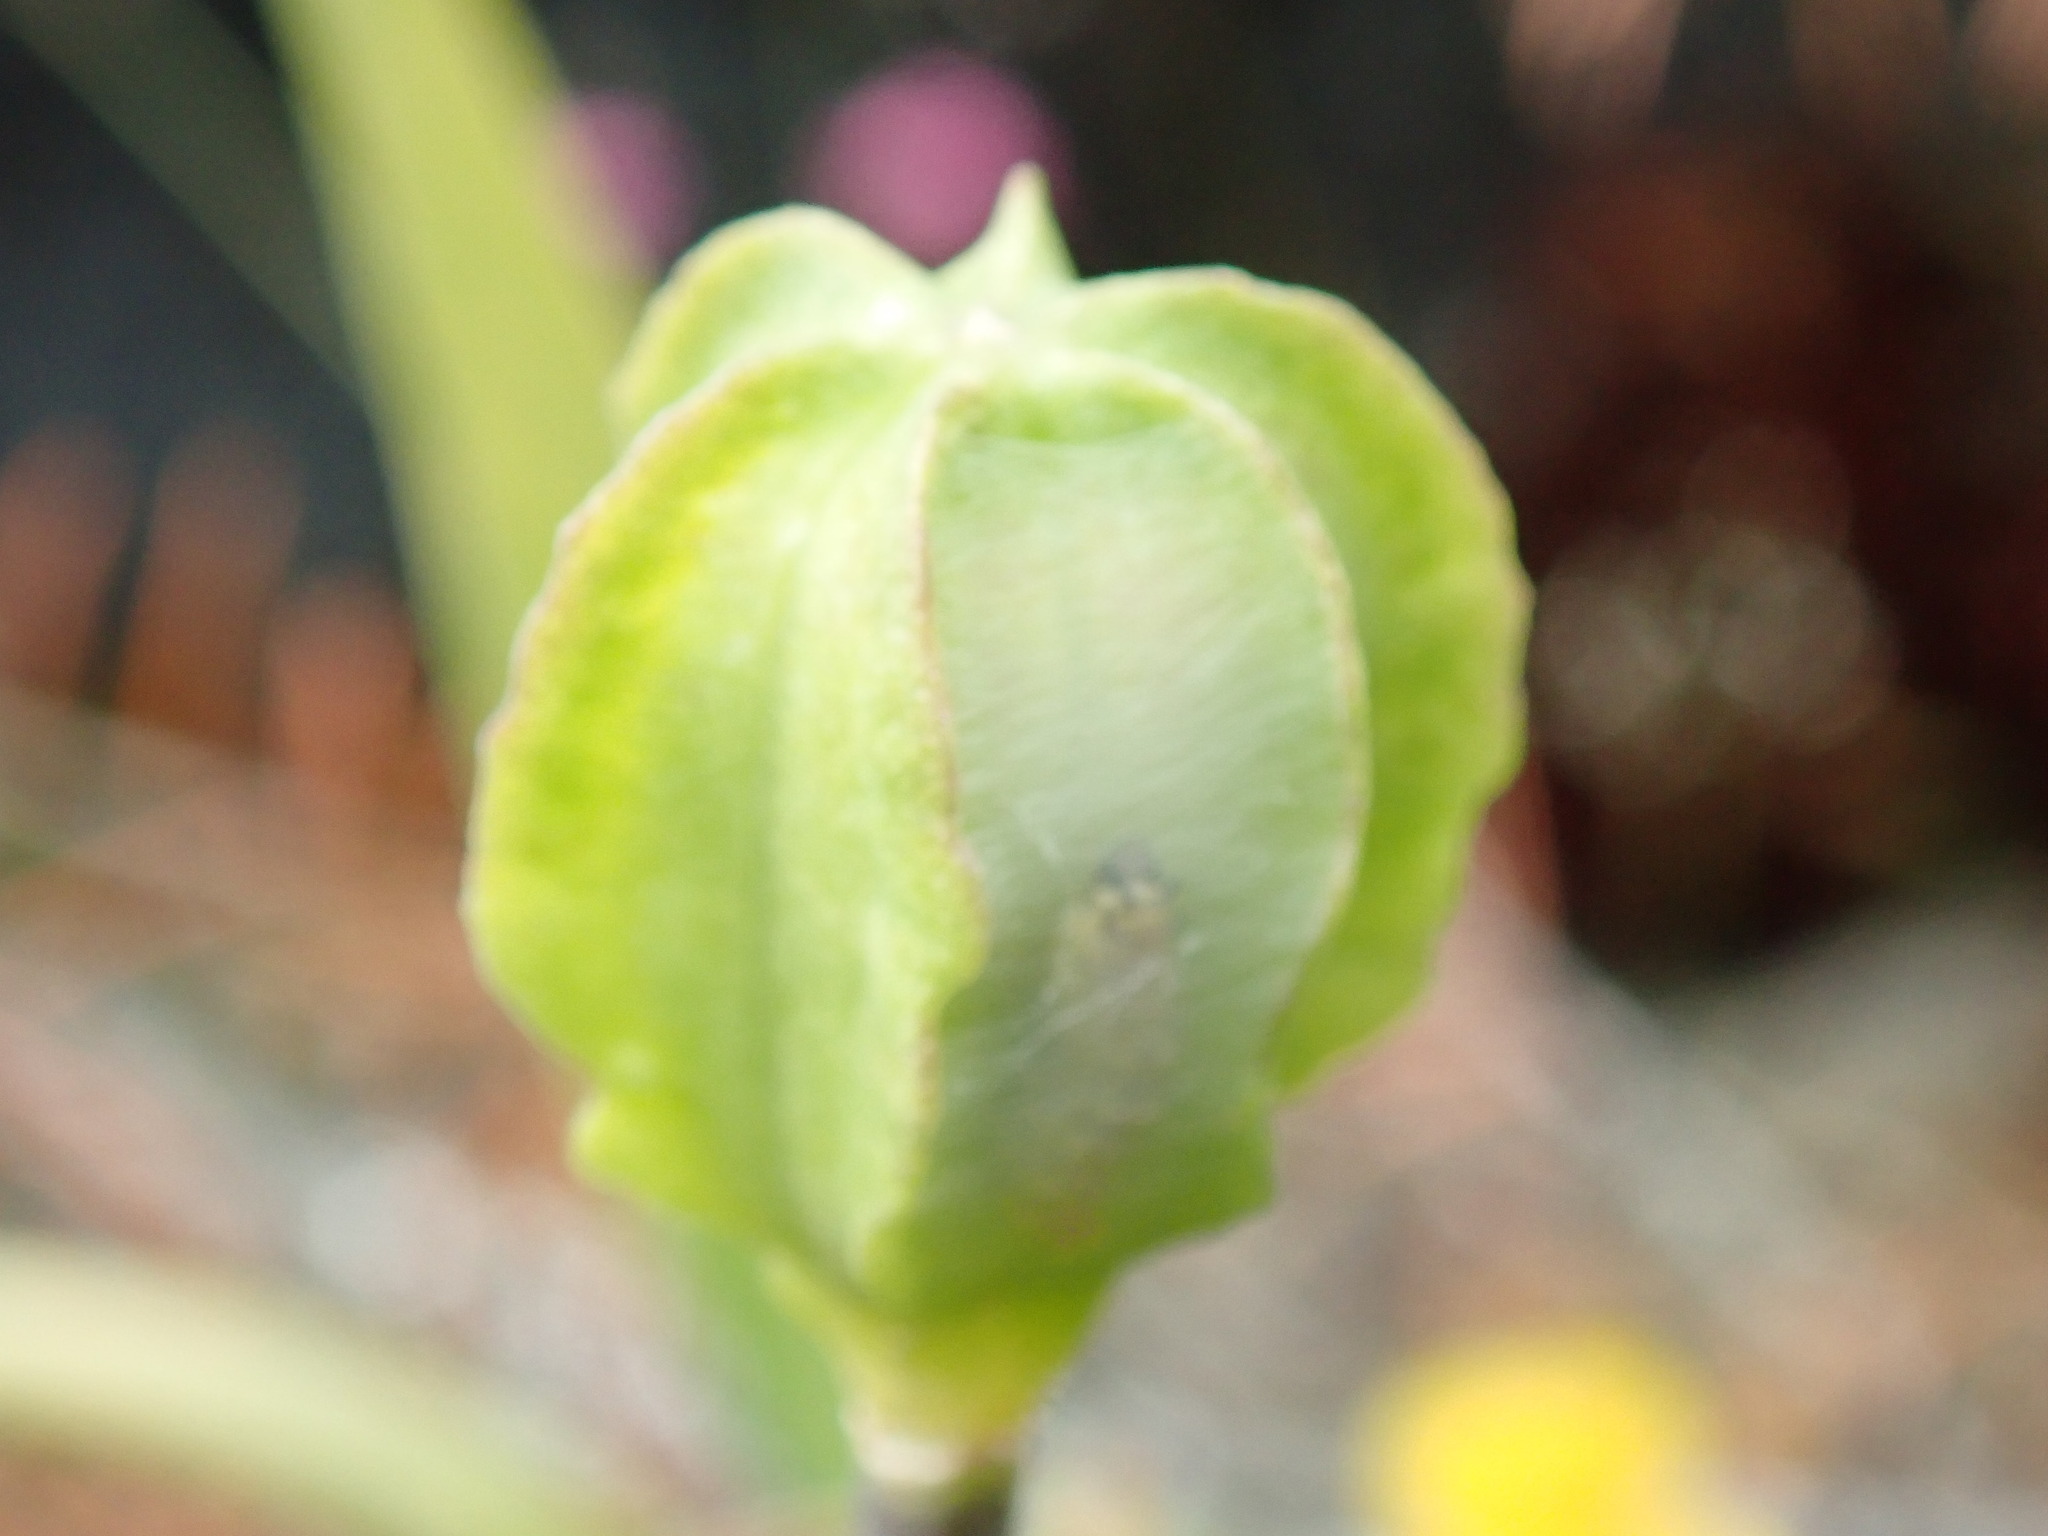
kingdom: Plantae
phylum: Tracheophyta
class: Liliopsida
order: Liliales
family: Liliaceae
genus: Fritillaria
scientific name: Fritillaria affinis
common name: Ojai fritillary
